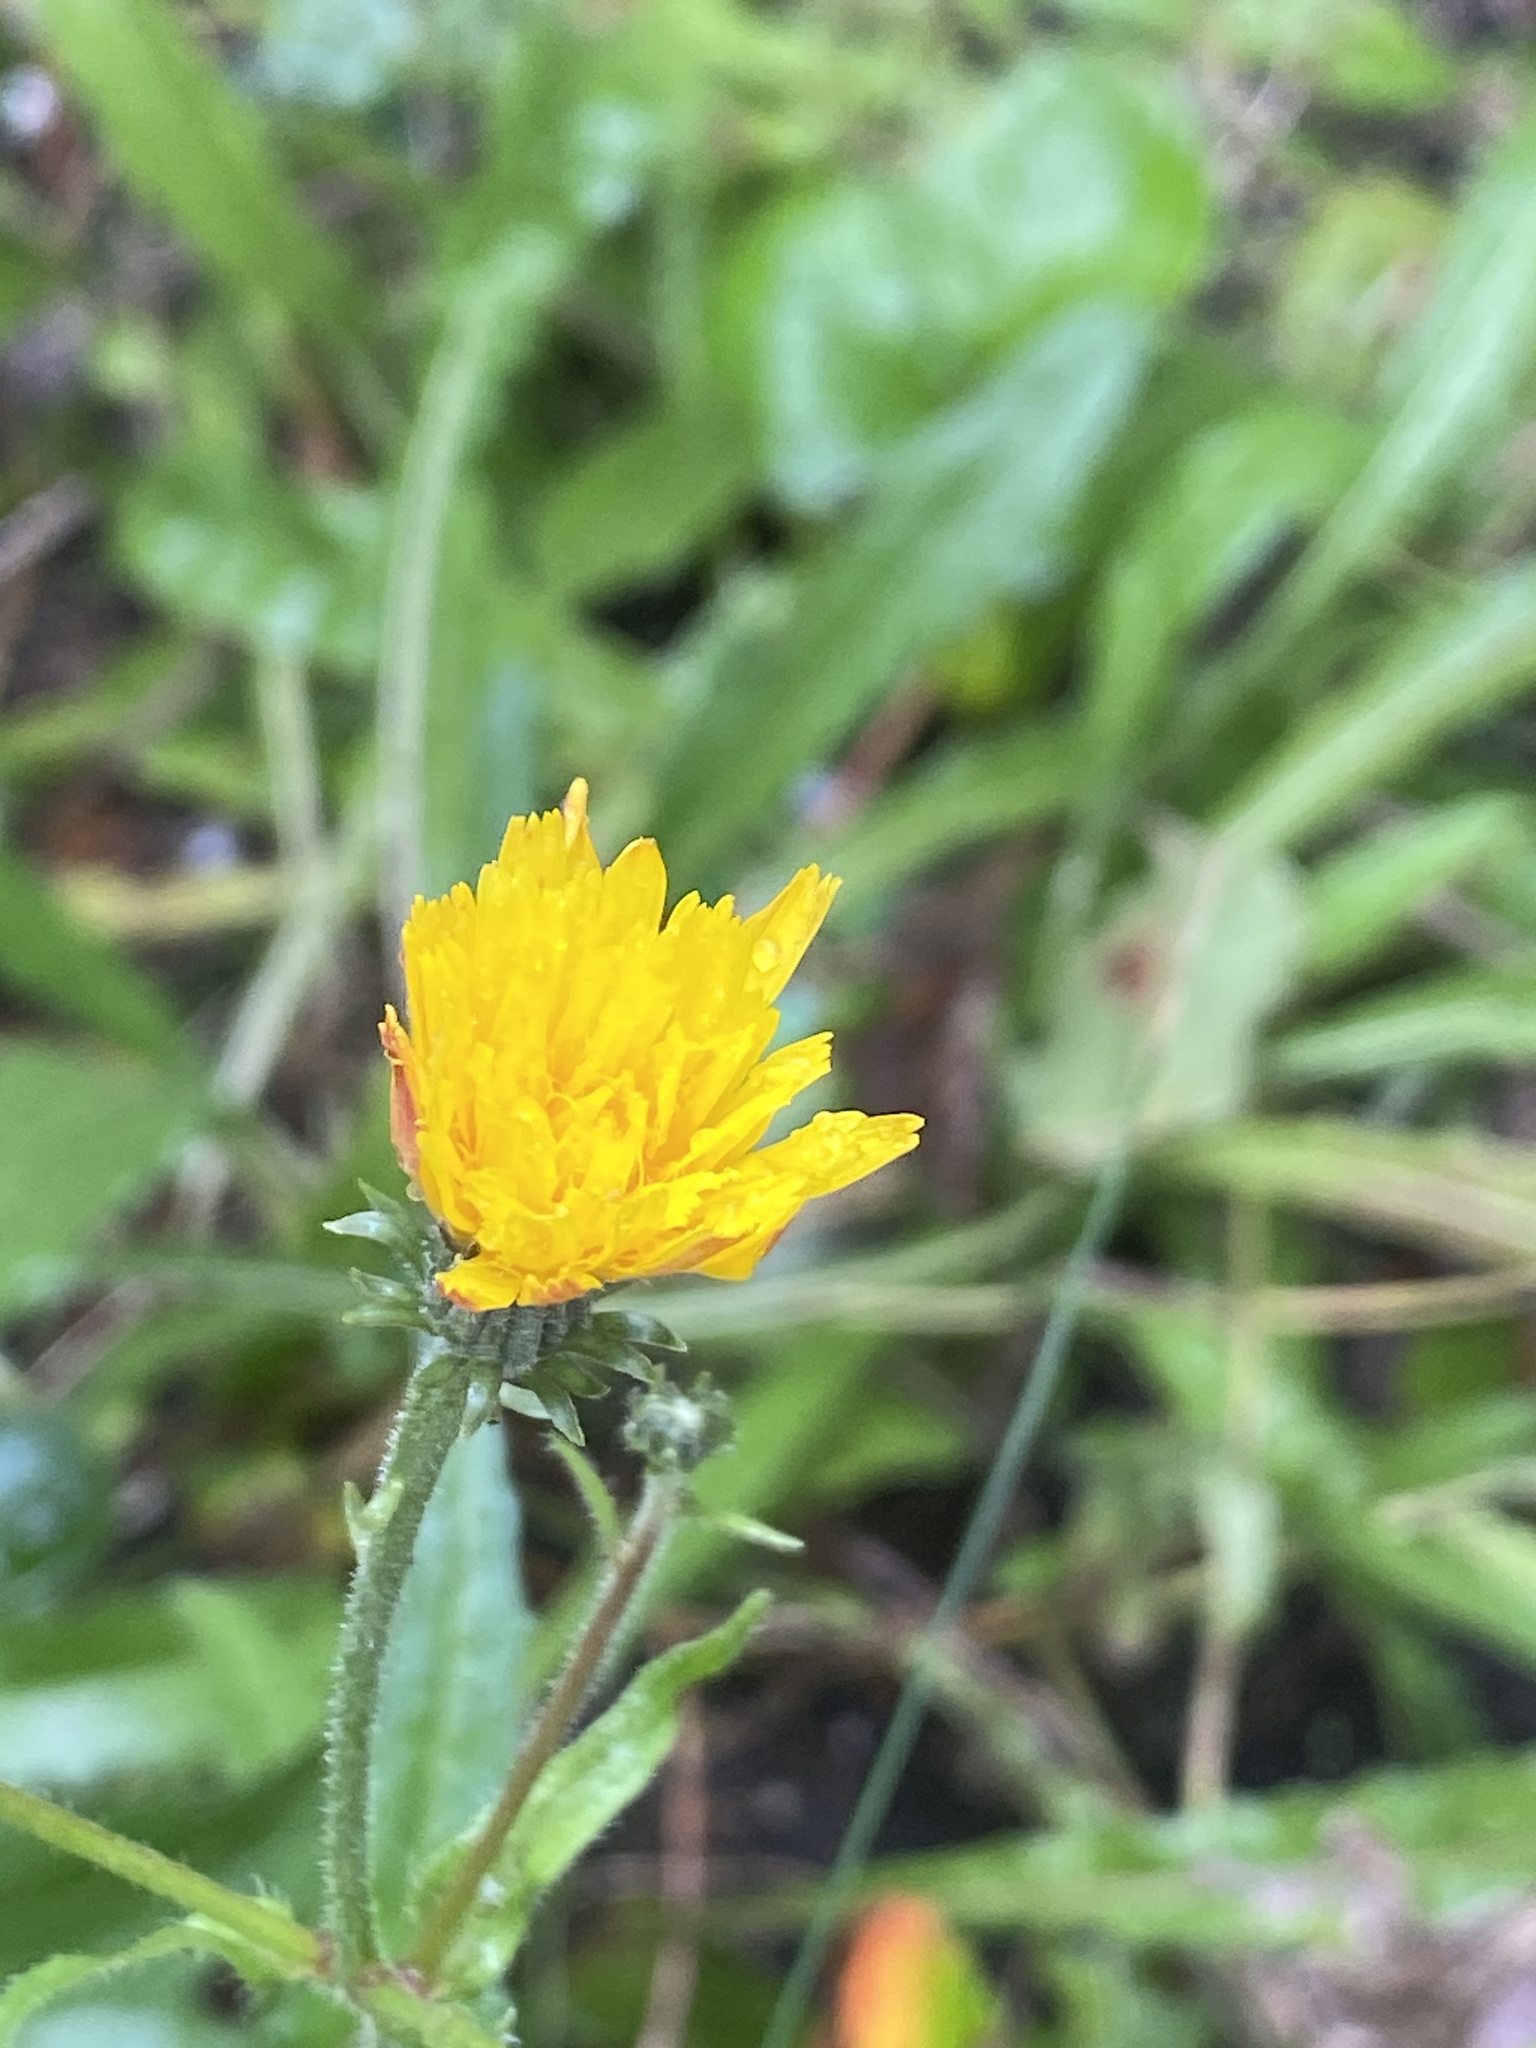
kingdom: Plantae
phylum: Tracheophyta
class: Magnoliopsida
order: Asterales
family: Asteraceae
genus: Picris
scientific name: Picris hieracioides
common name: Hawkweed oxtongue
